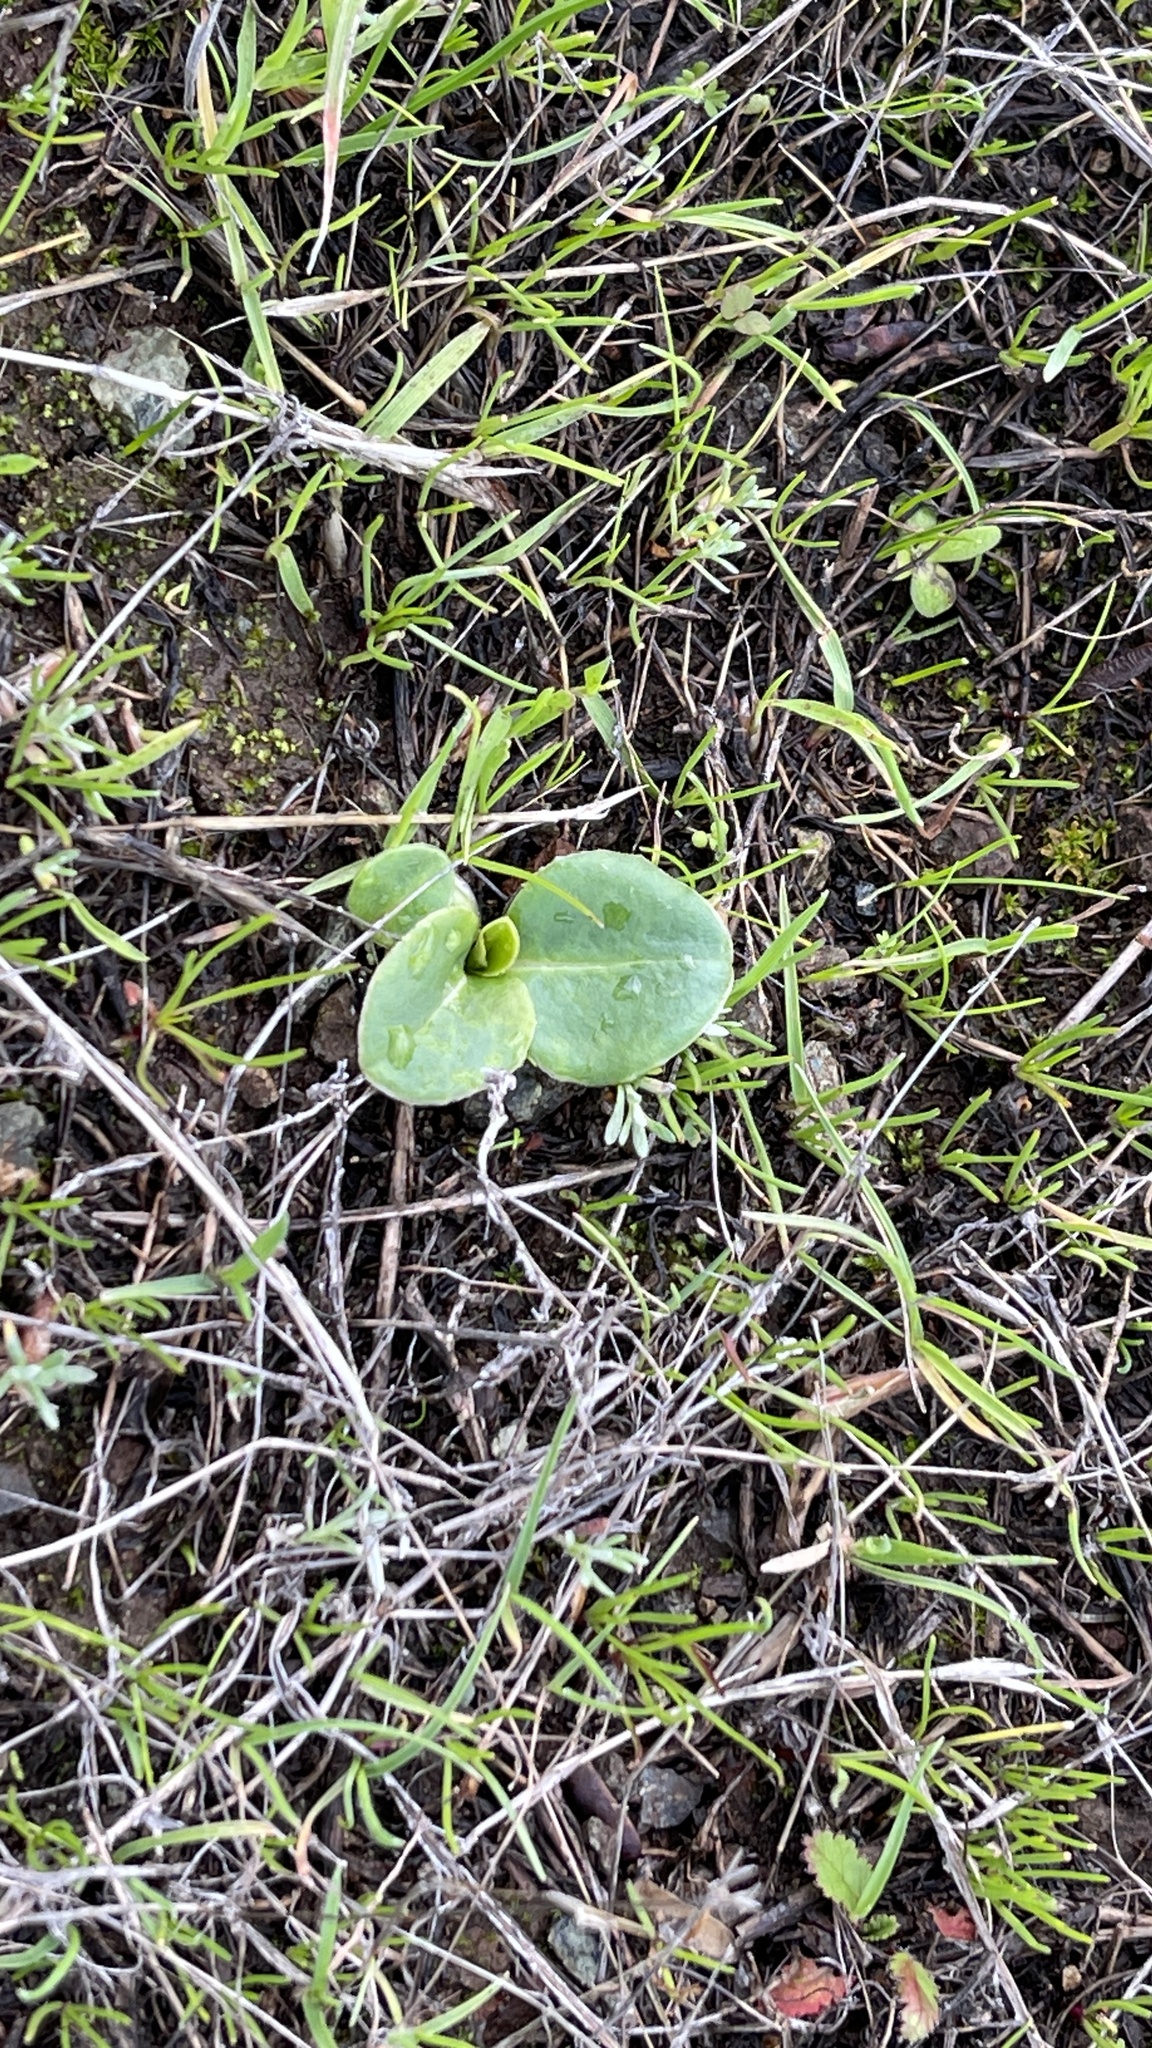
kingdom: Plantae
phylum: Tracheophyta
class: Magnoliopsida
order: Ericales
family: Primulaceae
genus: Dodecatheon
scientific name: Dodecatheon hendersonii
